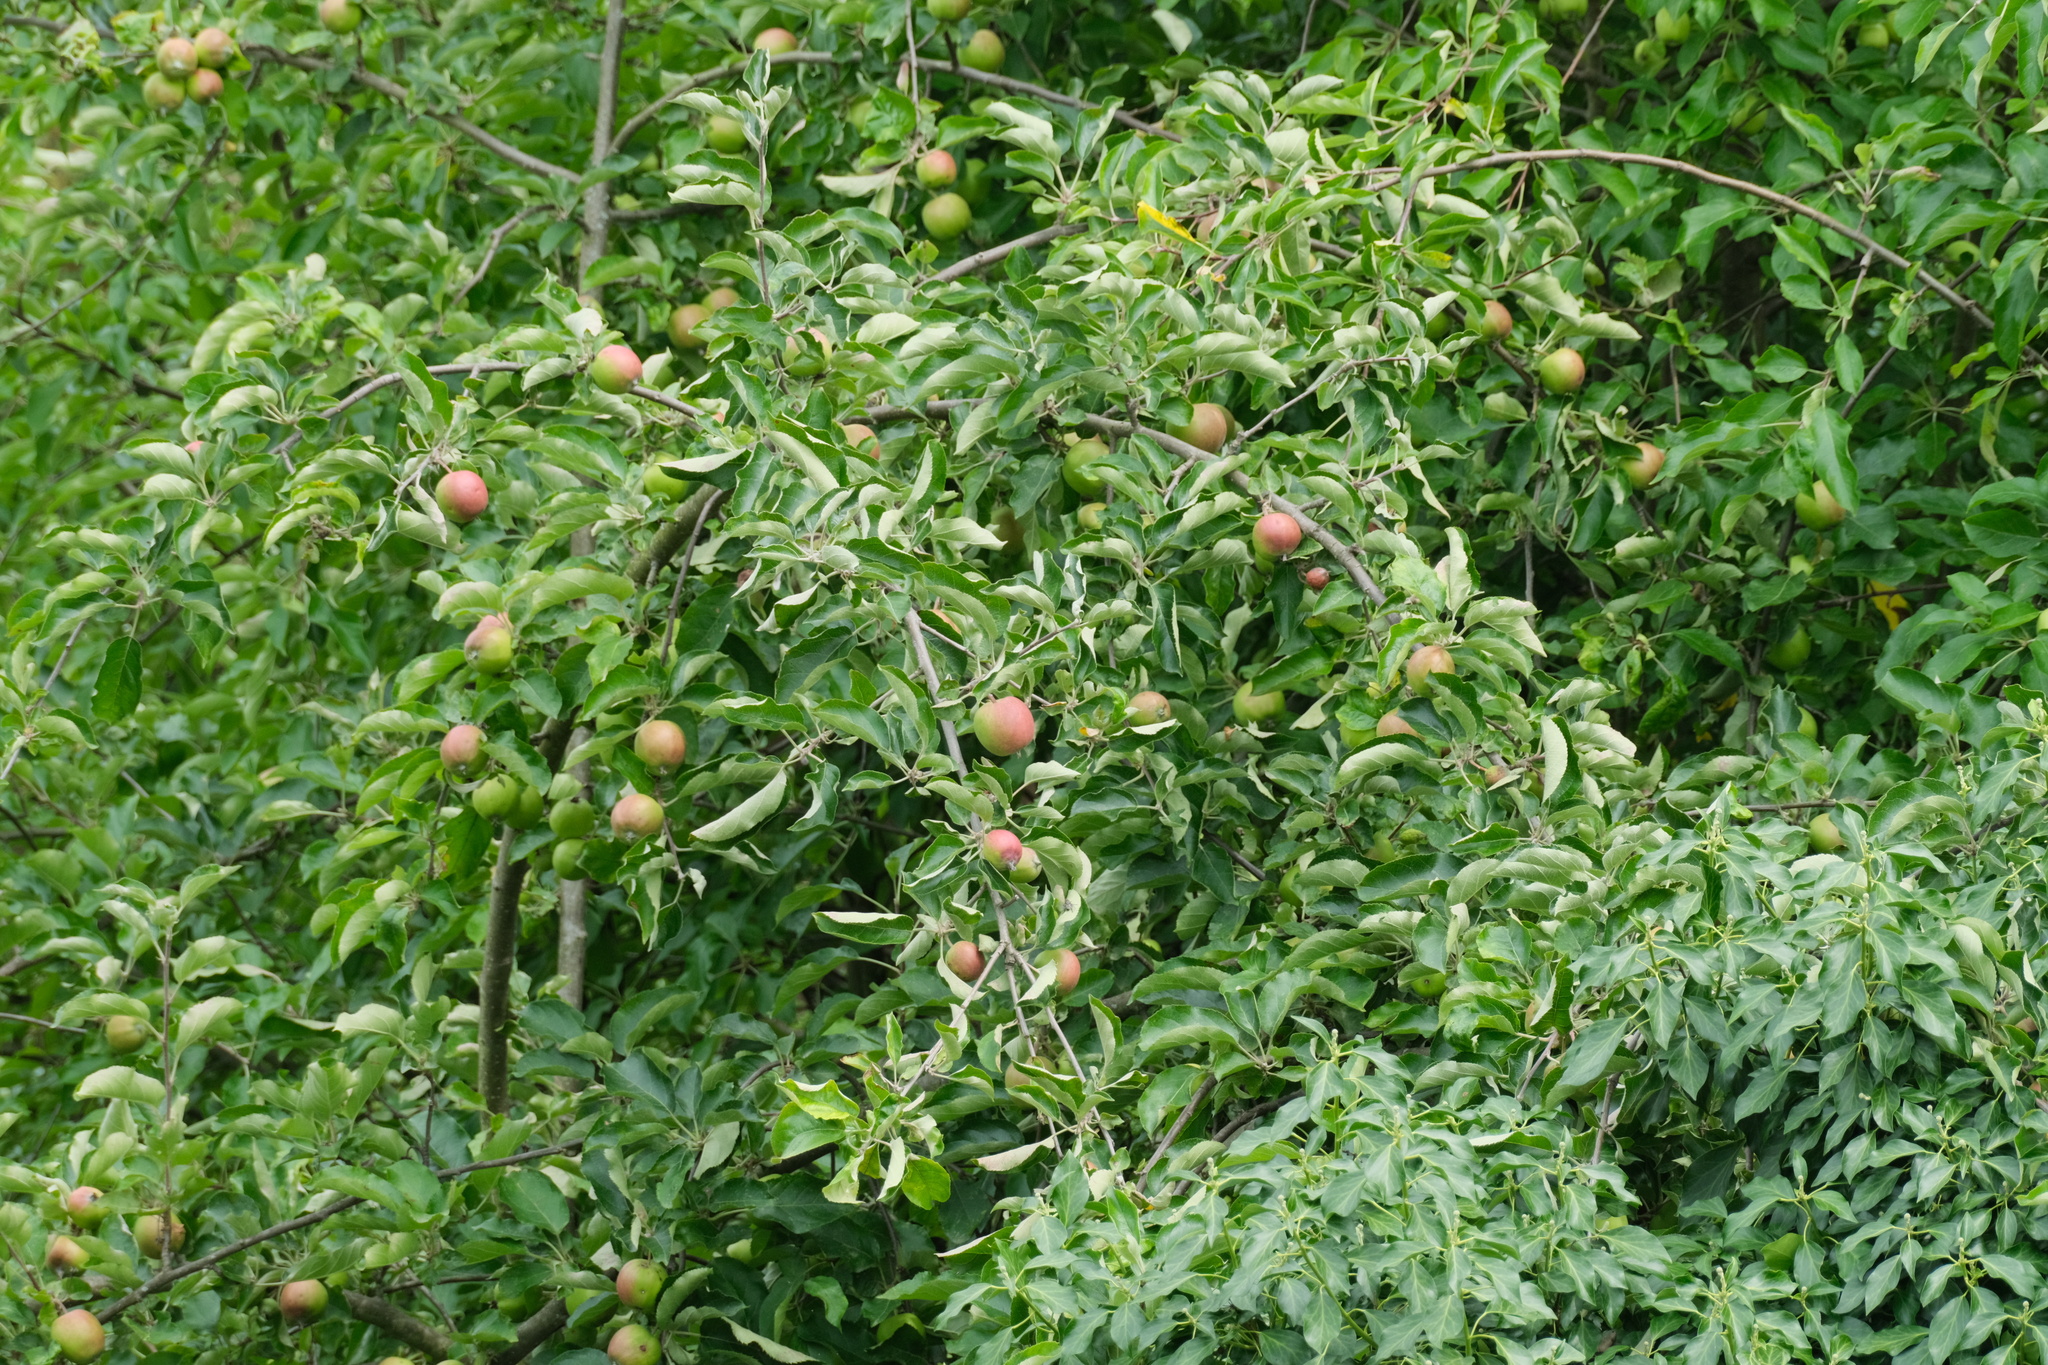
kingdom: Plantae
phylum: Tracheophyta
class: Magnoliopsida
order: Rosales
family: Rosaceae
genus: Malus
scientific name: Malus domestica
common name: Apple
